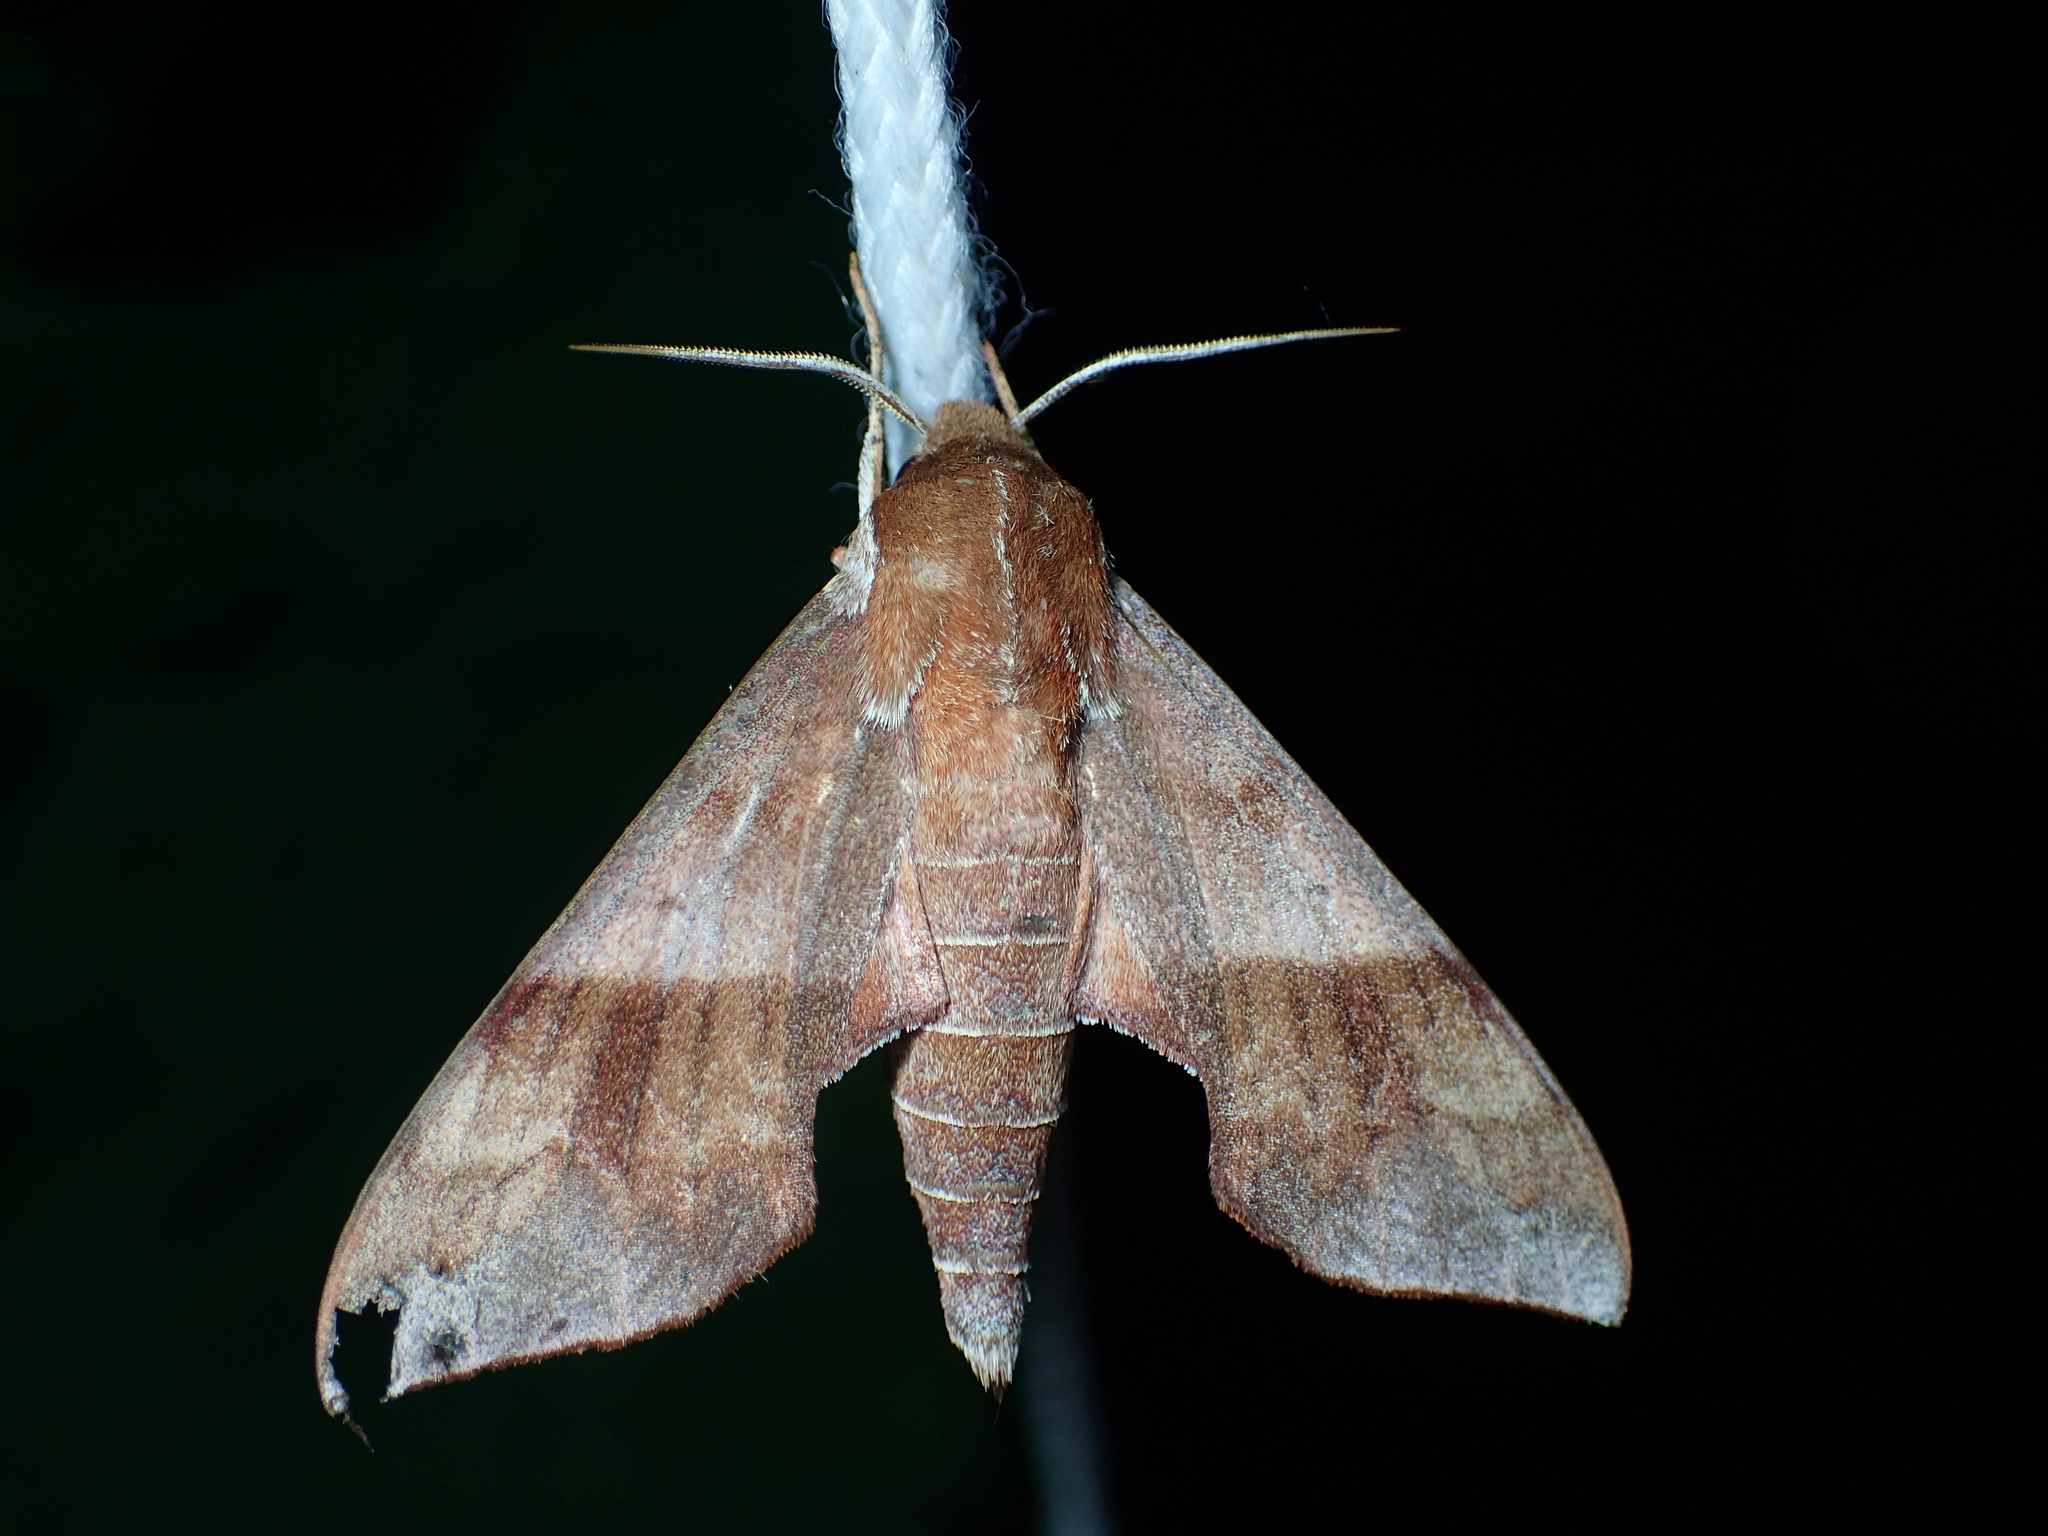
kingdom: Animalia
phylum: Arthropoda
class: Insecta
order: Lepidoptera
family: Sphingidae
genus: Darapsa
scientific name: Darapsa choerilus
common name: Azalea sphinx
